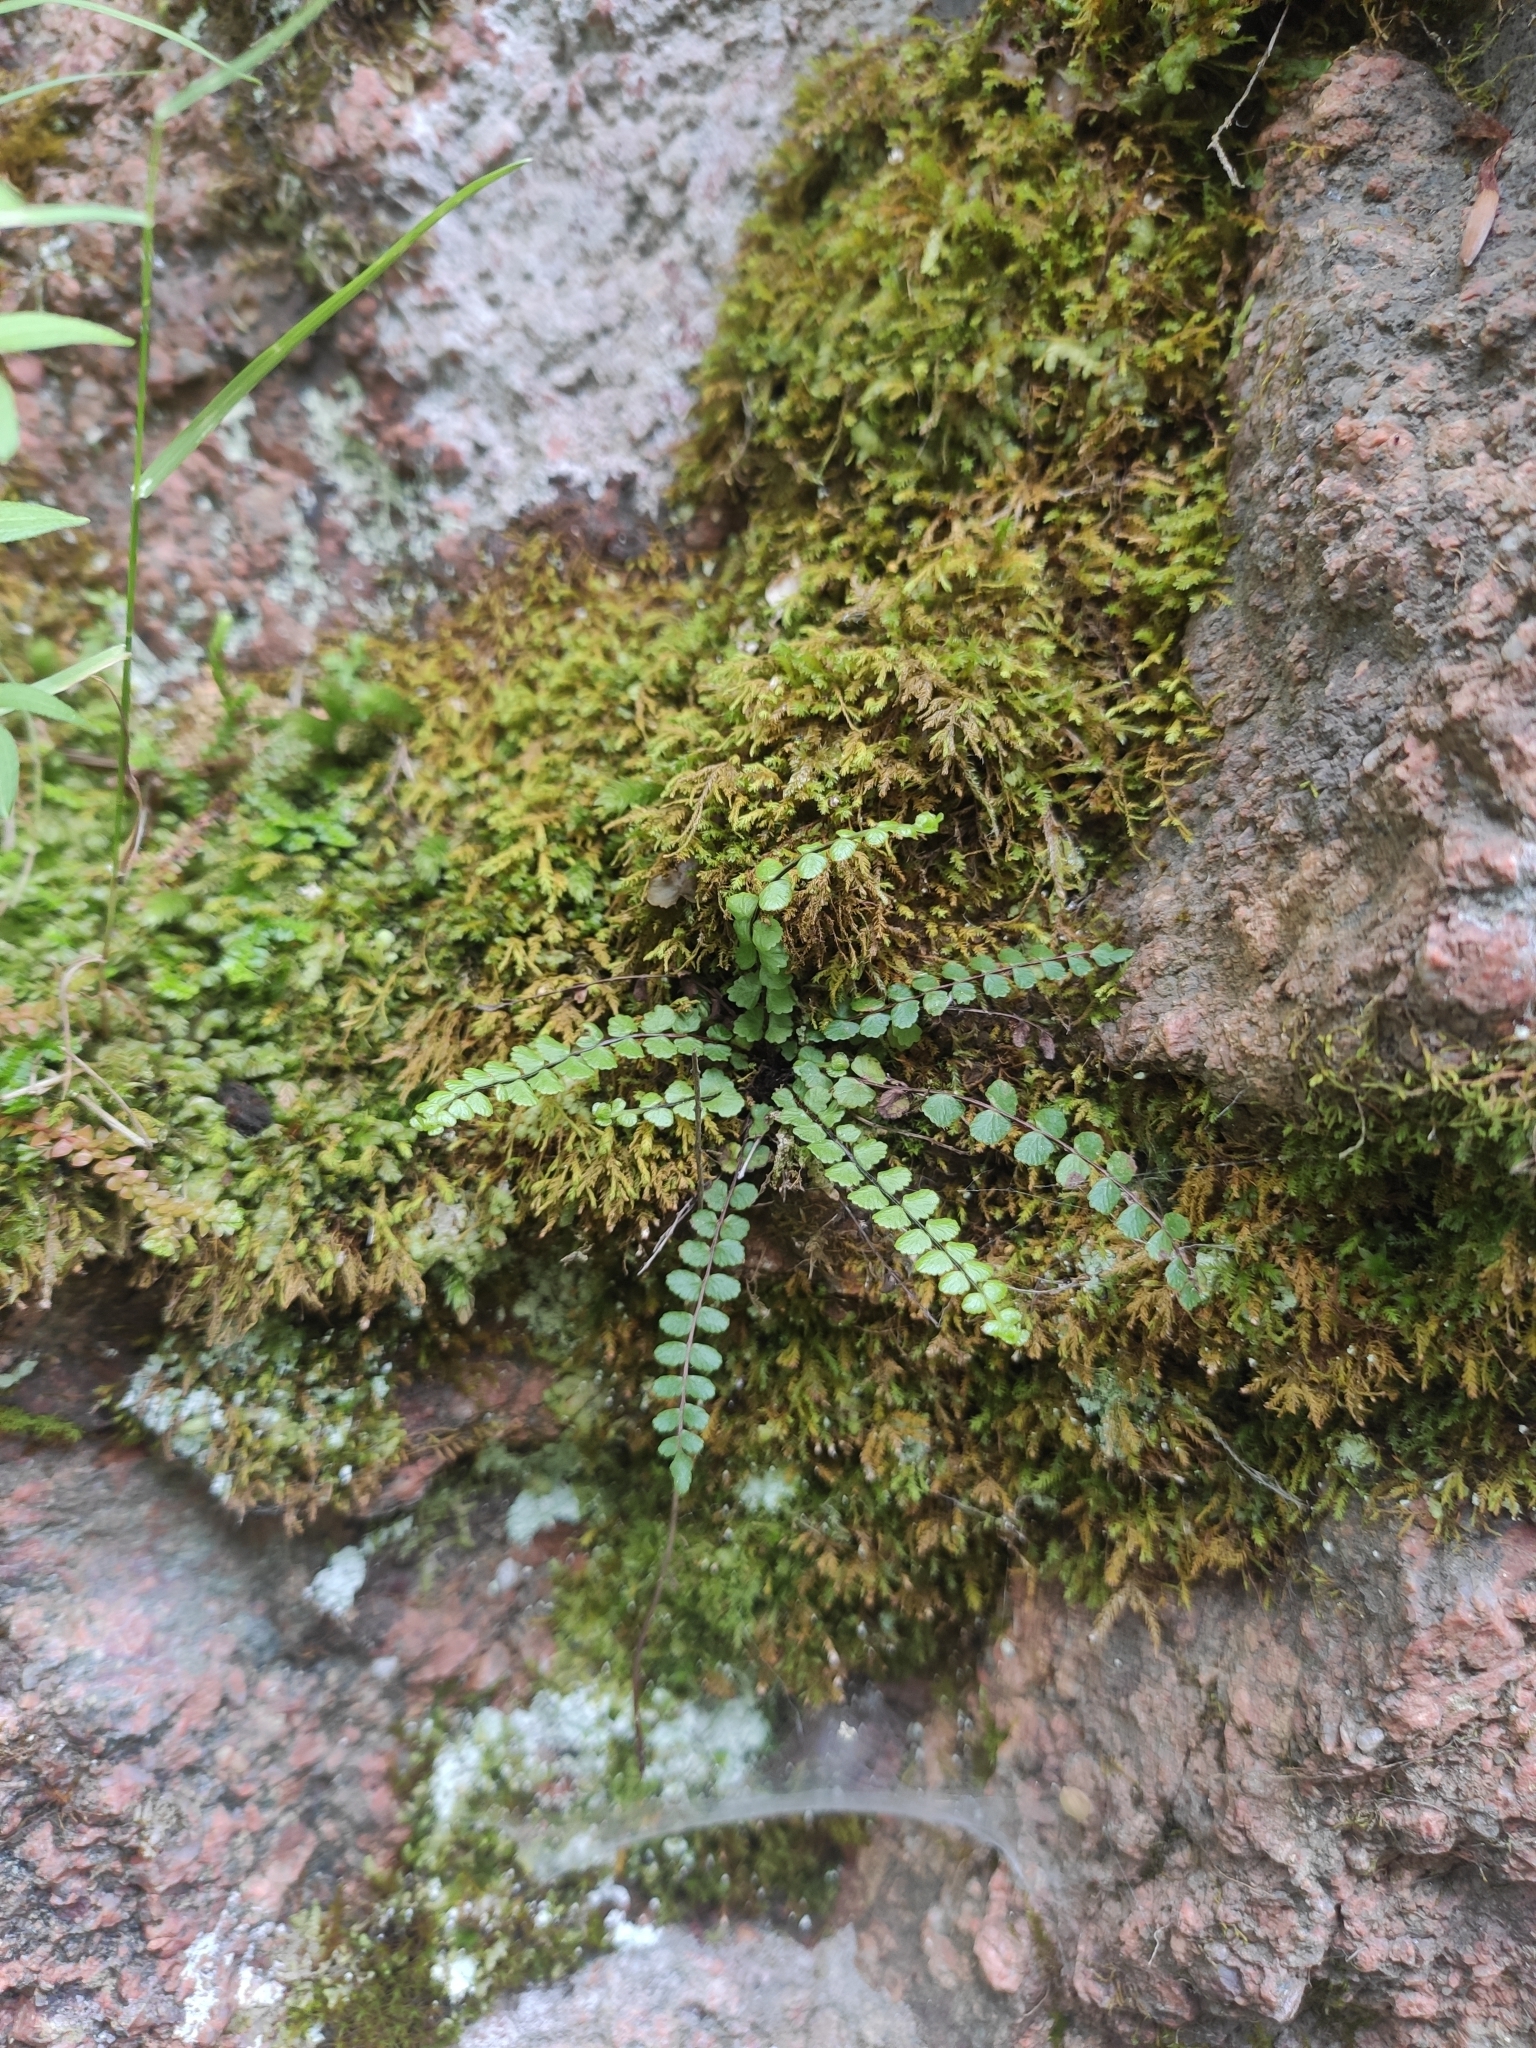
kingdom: Plantae
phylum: Tracheophyta
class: Polypodiopsida
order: Polypodiales
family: Aspleniaceae
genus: Asplenium
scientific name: Asplenium trichomanes
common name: Maidenhair spleenwort
